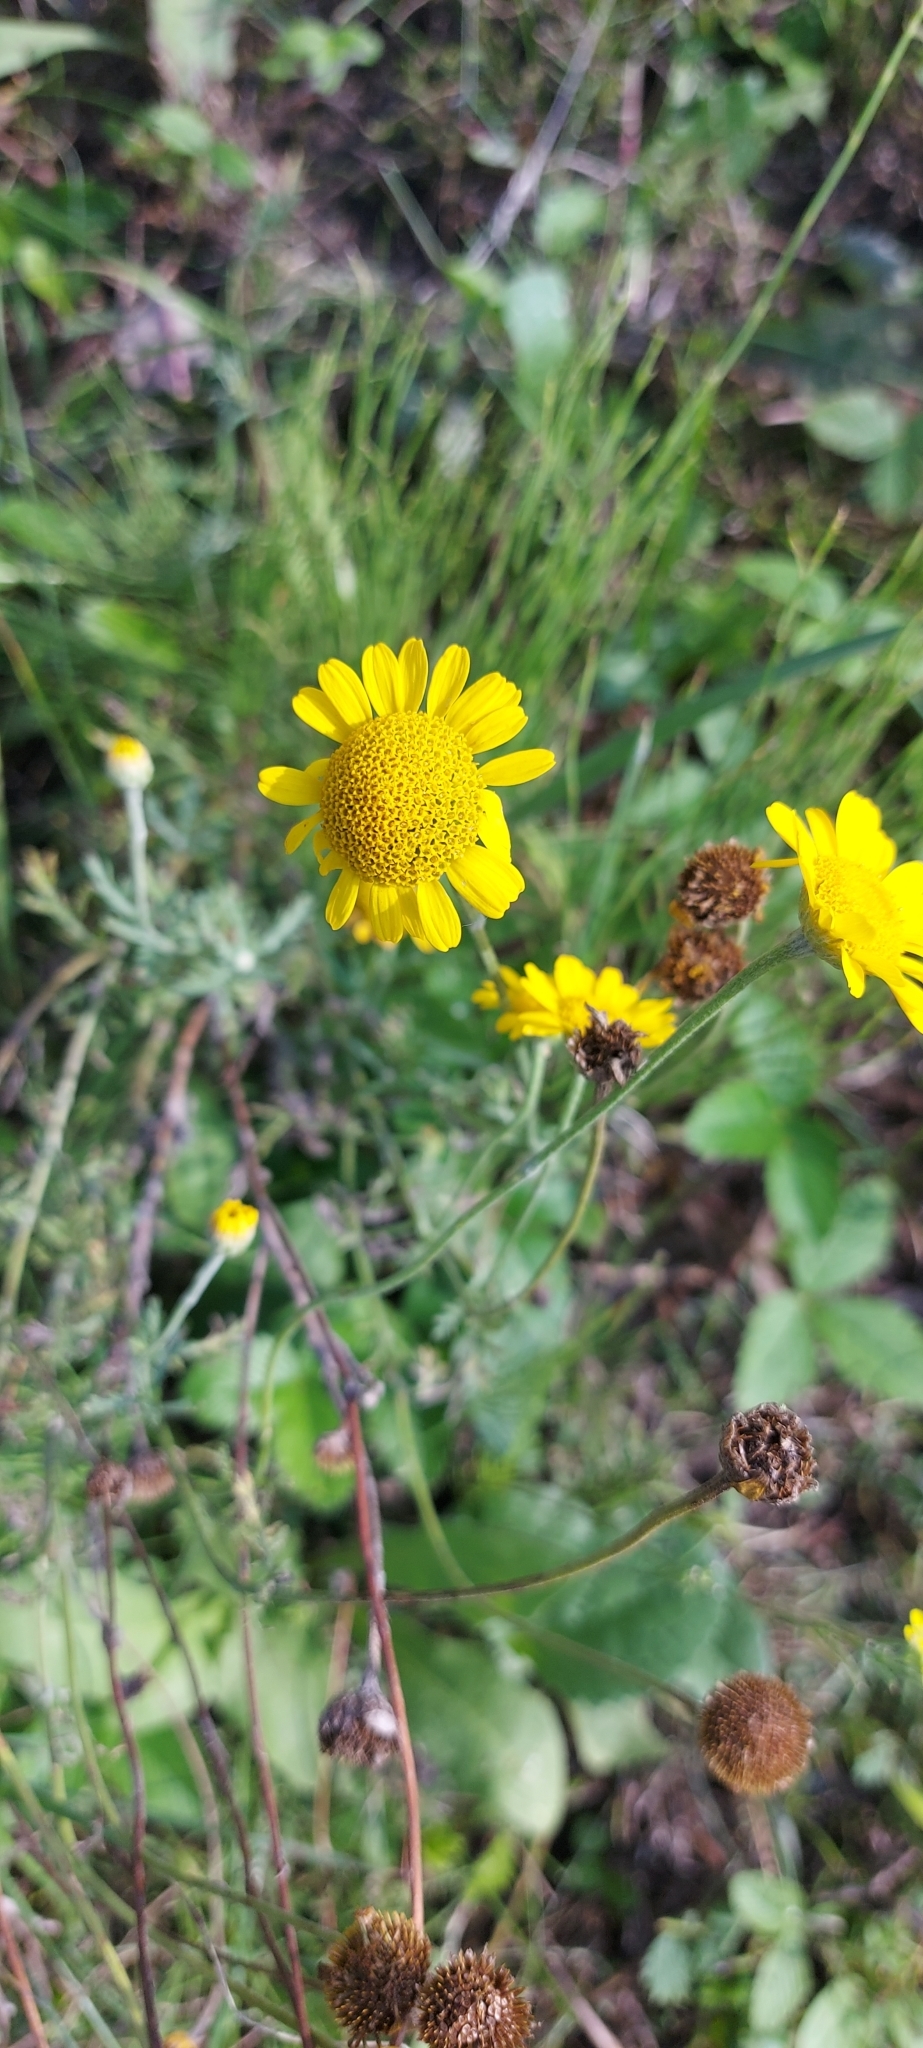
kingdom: Plantae
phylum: Tracheophyta
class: Magnoliopsida
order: Asterales
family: Asteraceae
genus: Cota
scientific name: Cota tinctoria
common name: Golden chamomile
